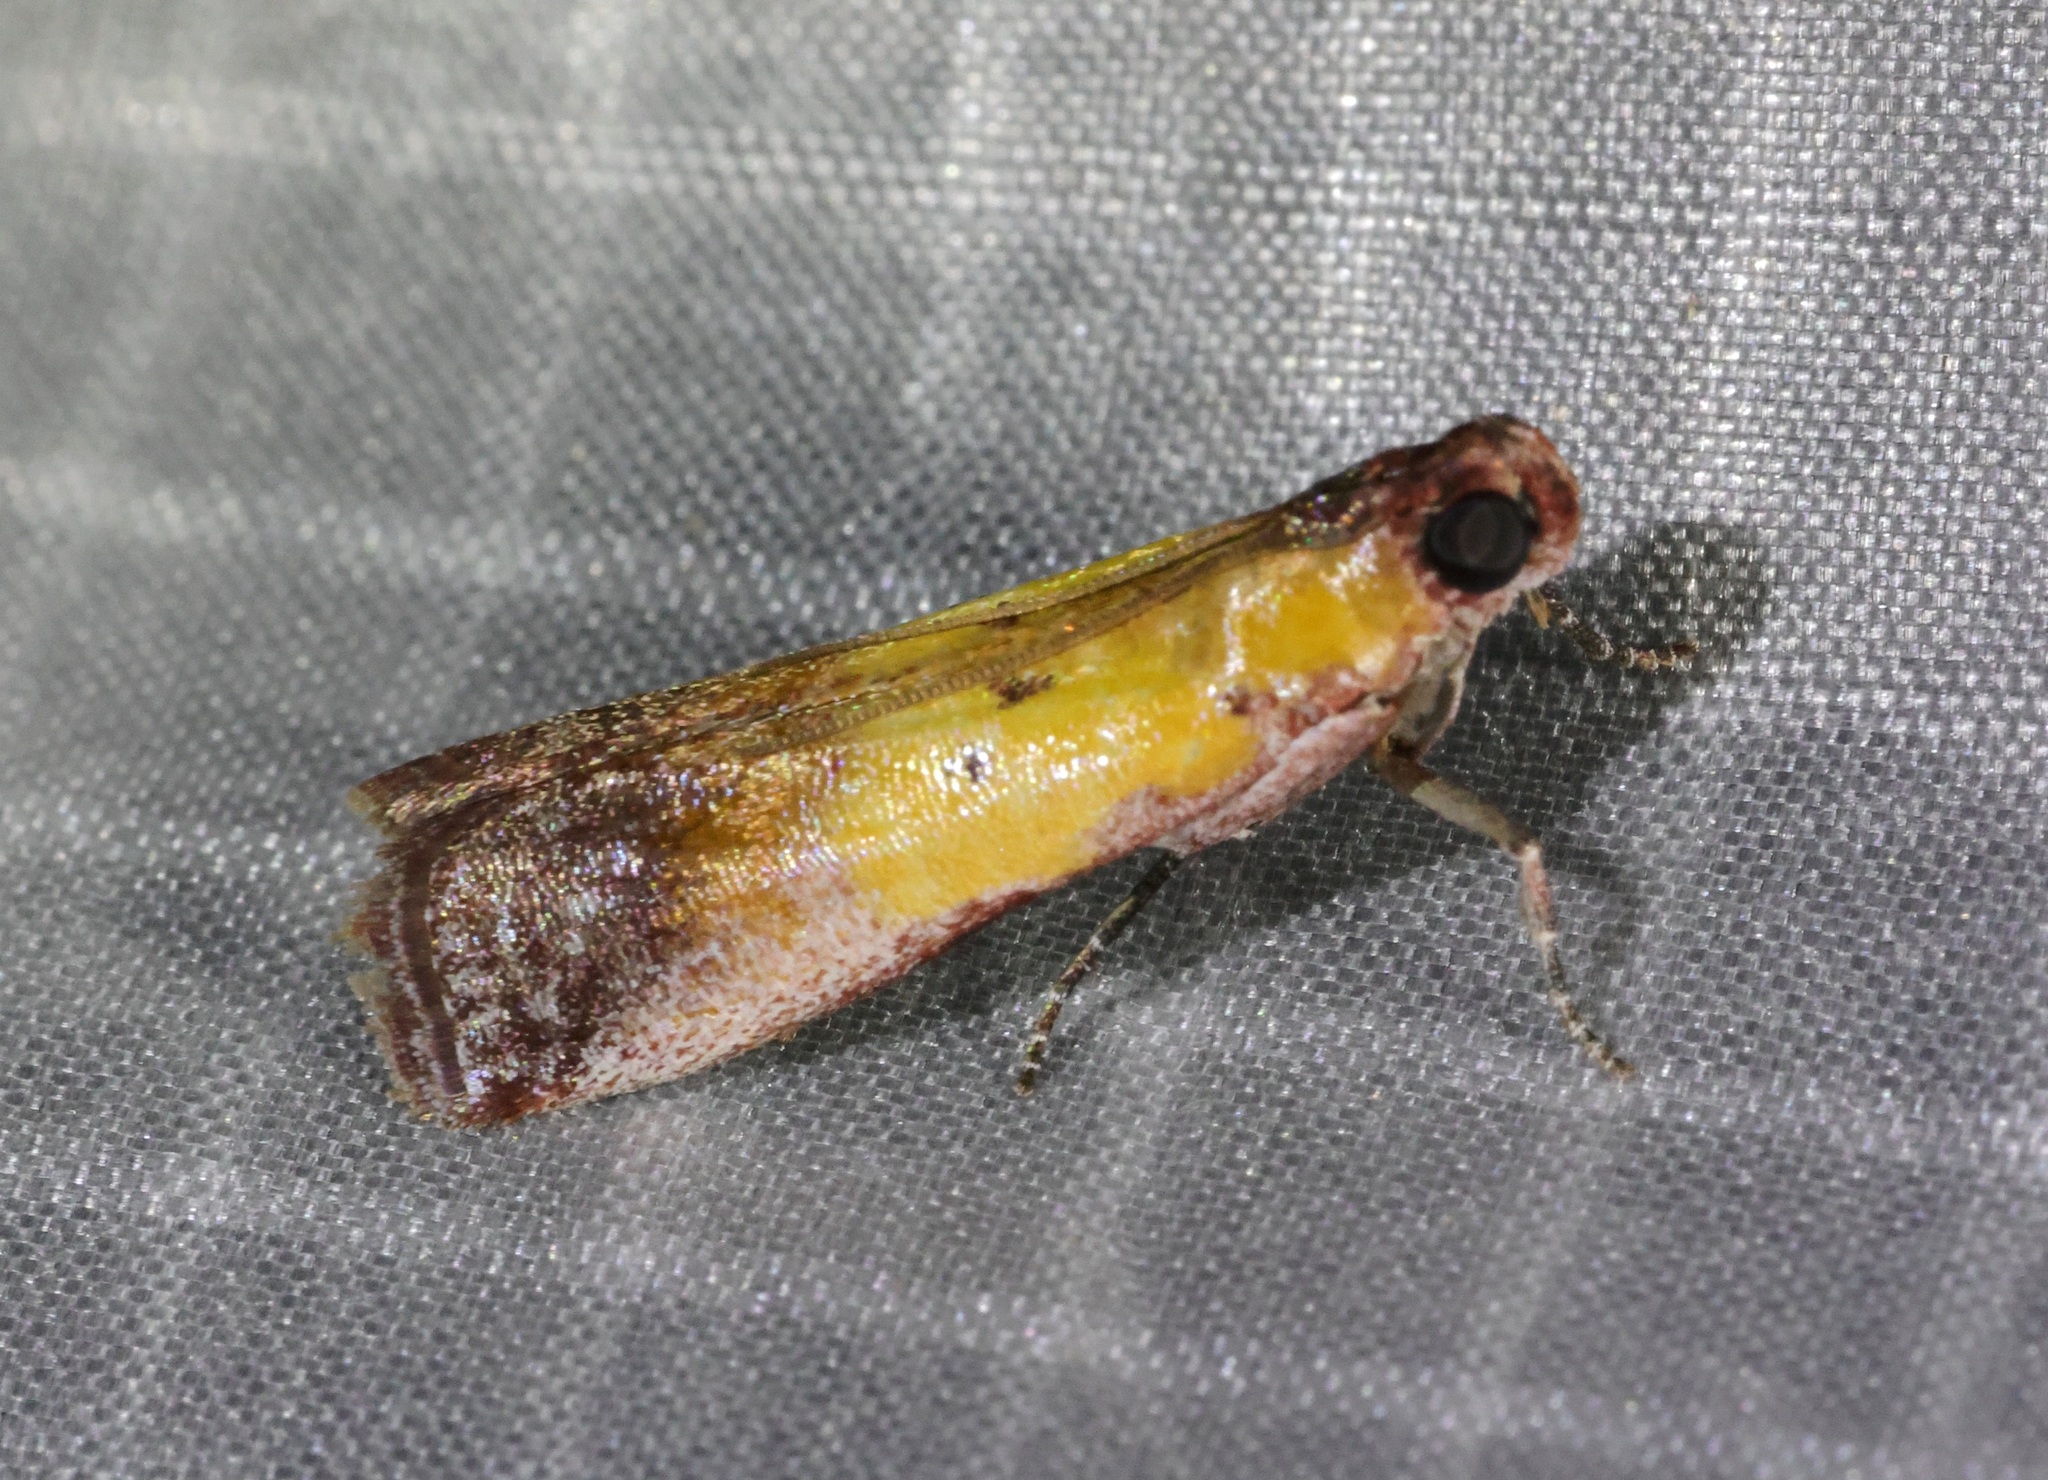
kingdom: Animalia
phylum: Arthropoda
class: Insecta
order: Lepidoptera
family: Pyralidae
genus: Piesmopoda
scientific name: Piesmopoda
